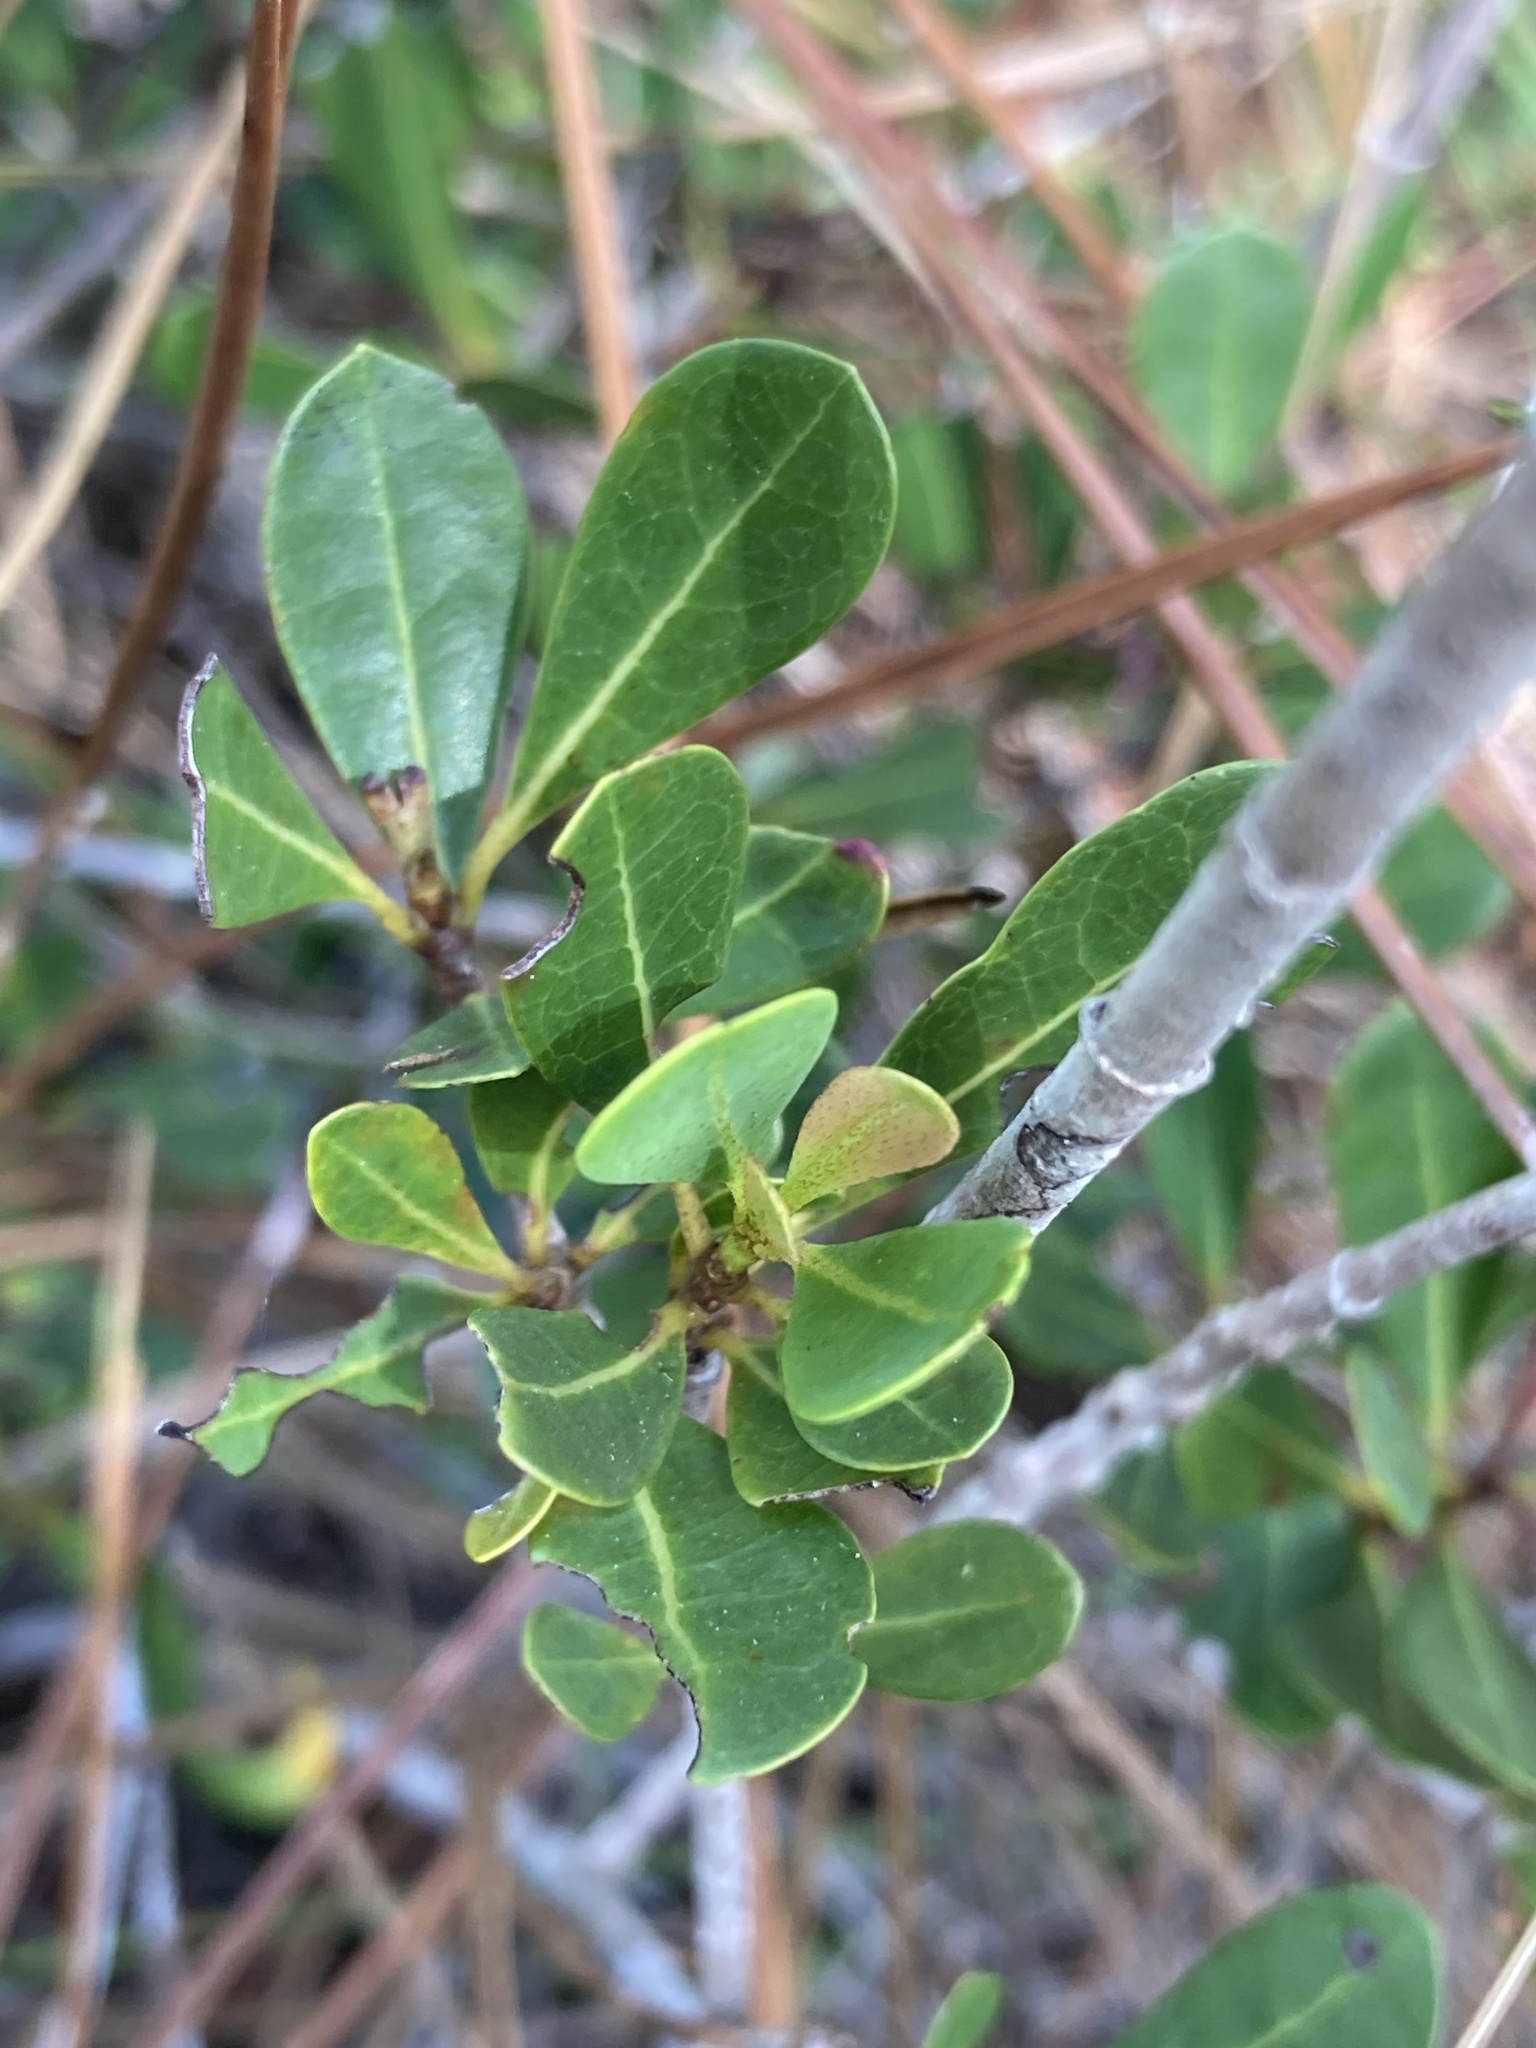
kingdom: Plantae
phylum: Tracheophyta
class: Magnoliopsida
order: Malpighiales
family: Malpighiaceae
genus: Byrsonima
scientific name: Byrsonima lucida
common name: Clam-cherry
